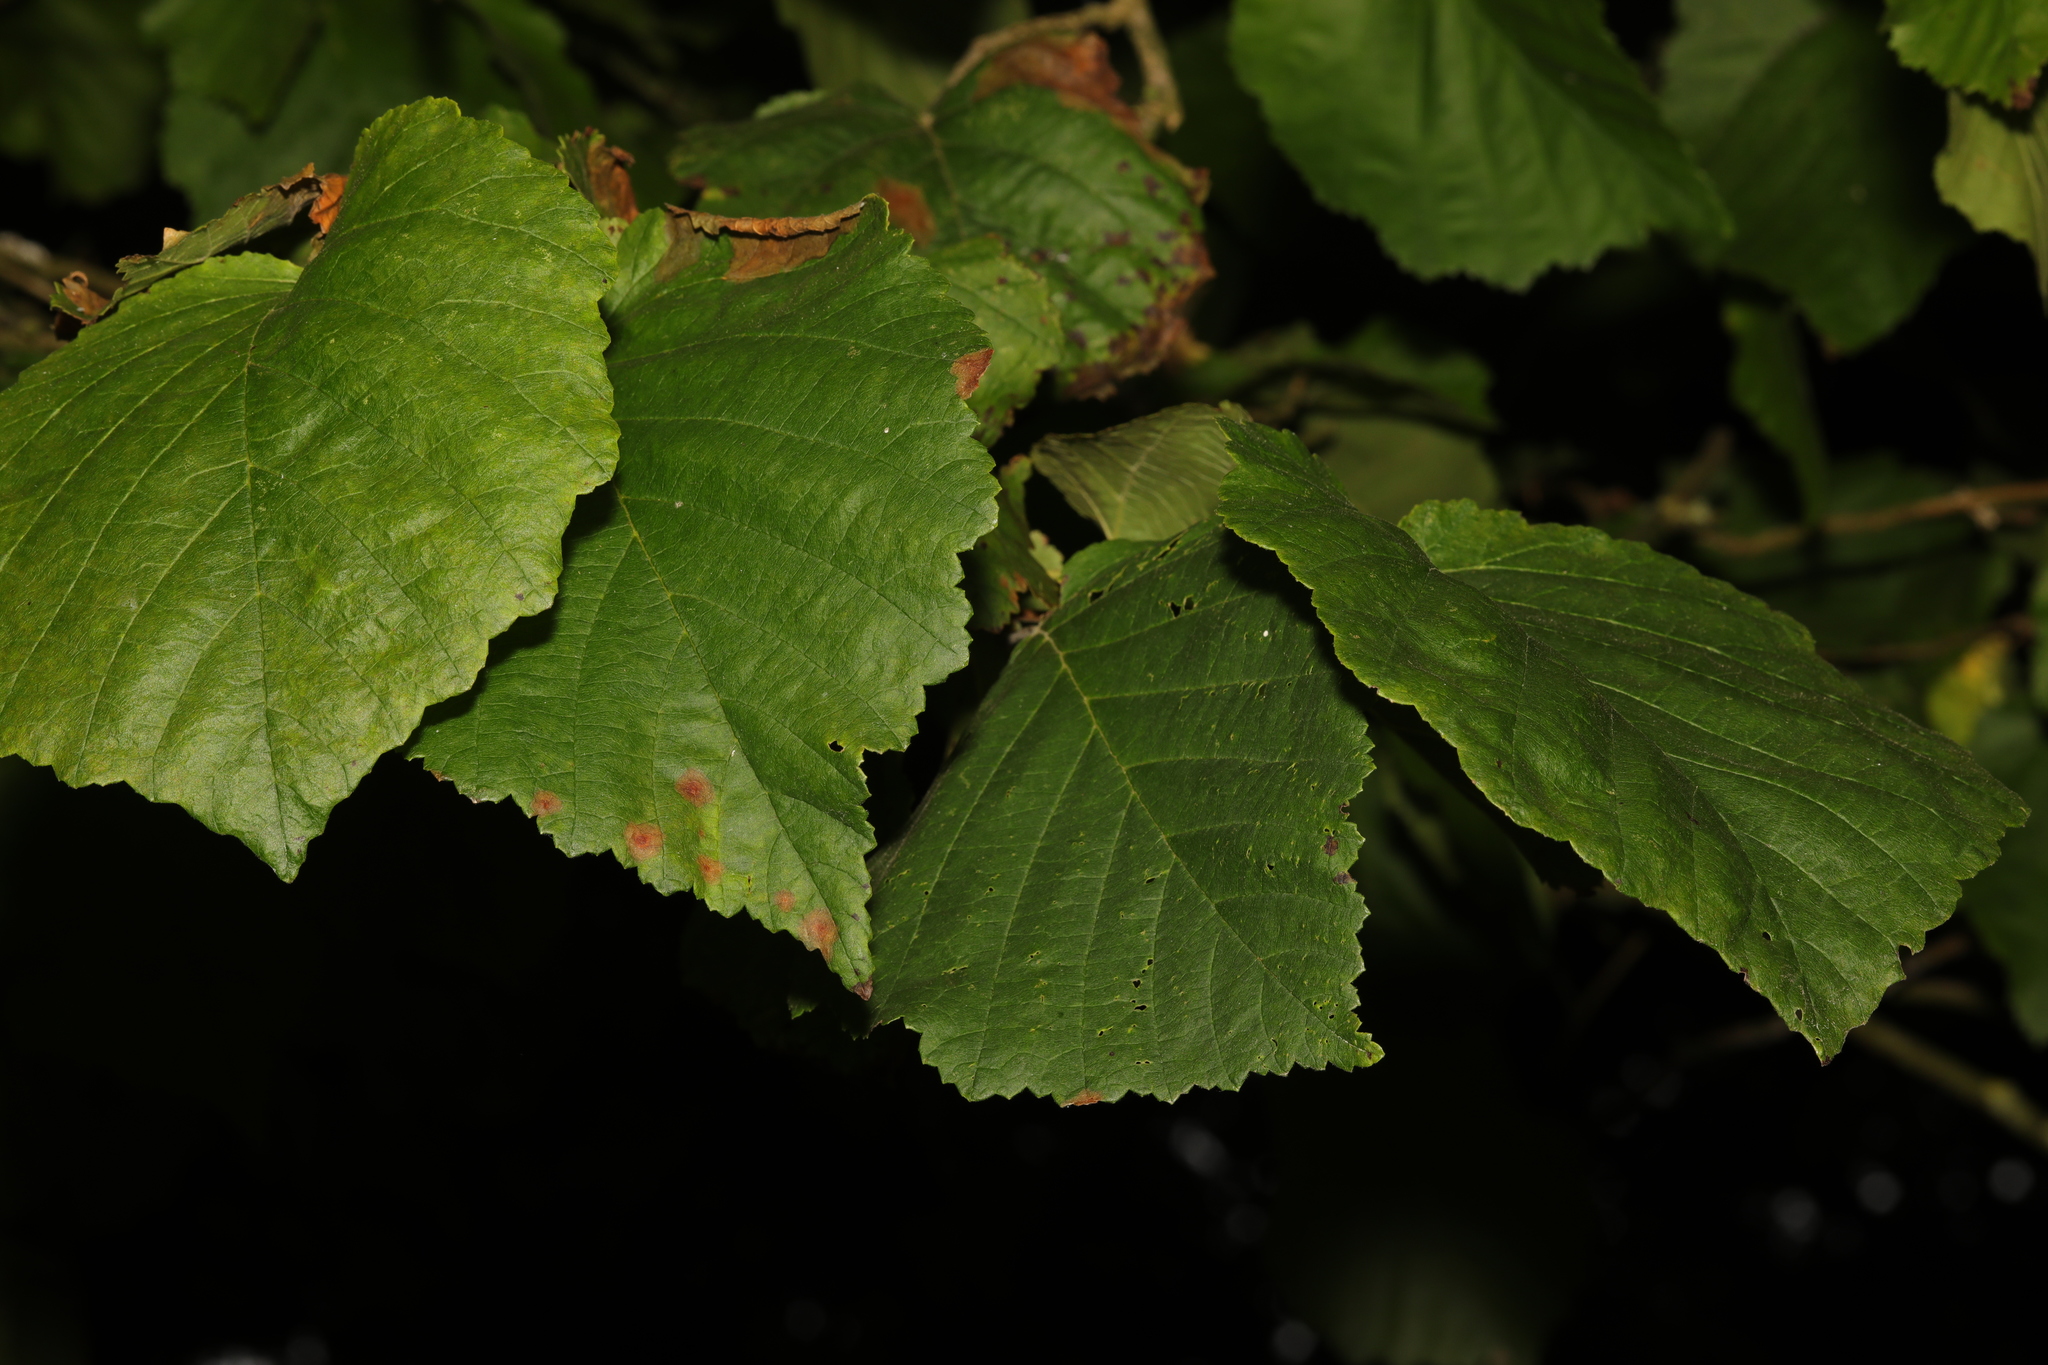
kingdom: Plantae
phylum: Tracheophyta
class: Magnoliopsida
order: Fagales
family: Betulaceae
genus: Corylus
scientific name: Corylus colurna
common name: Turkish hazel
